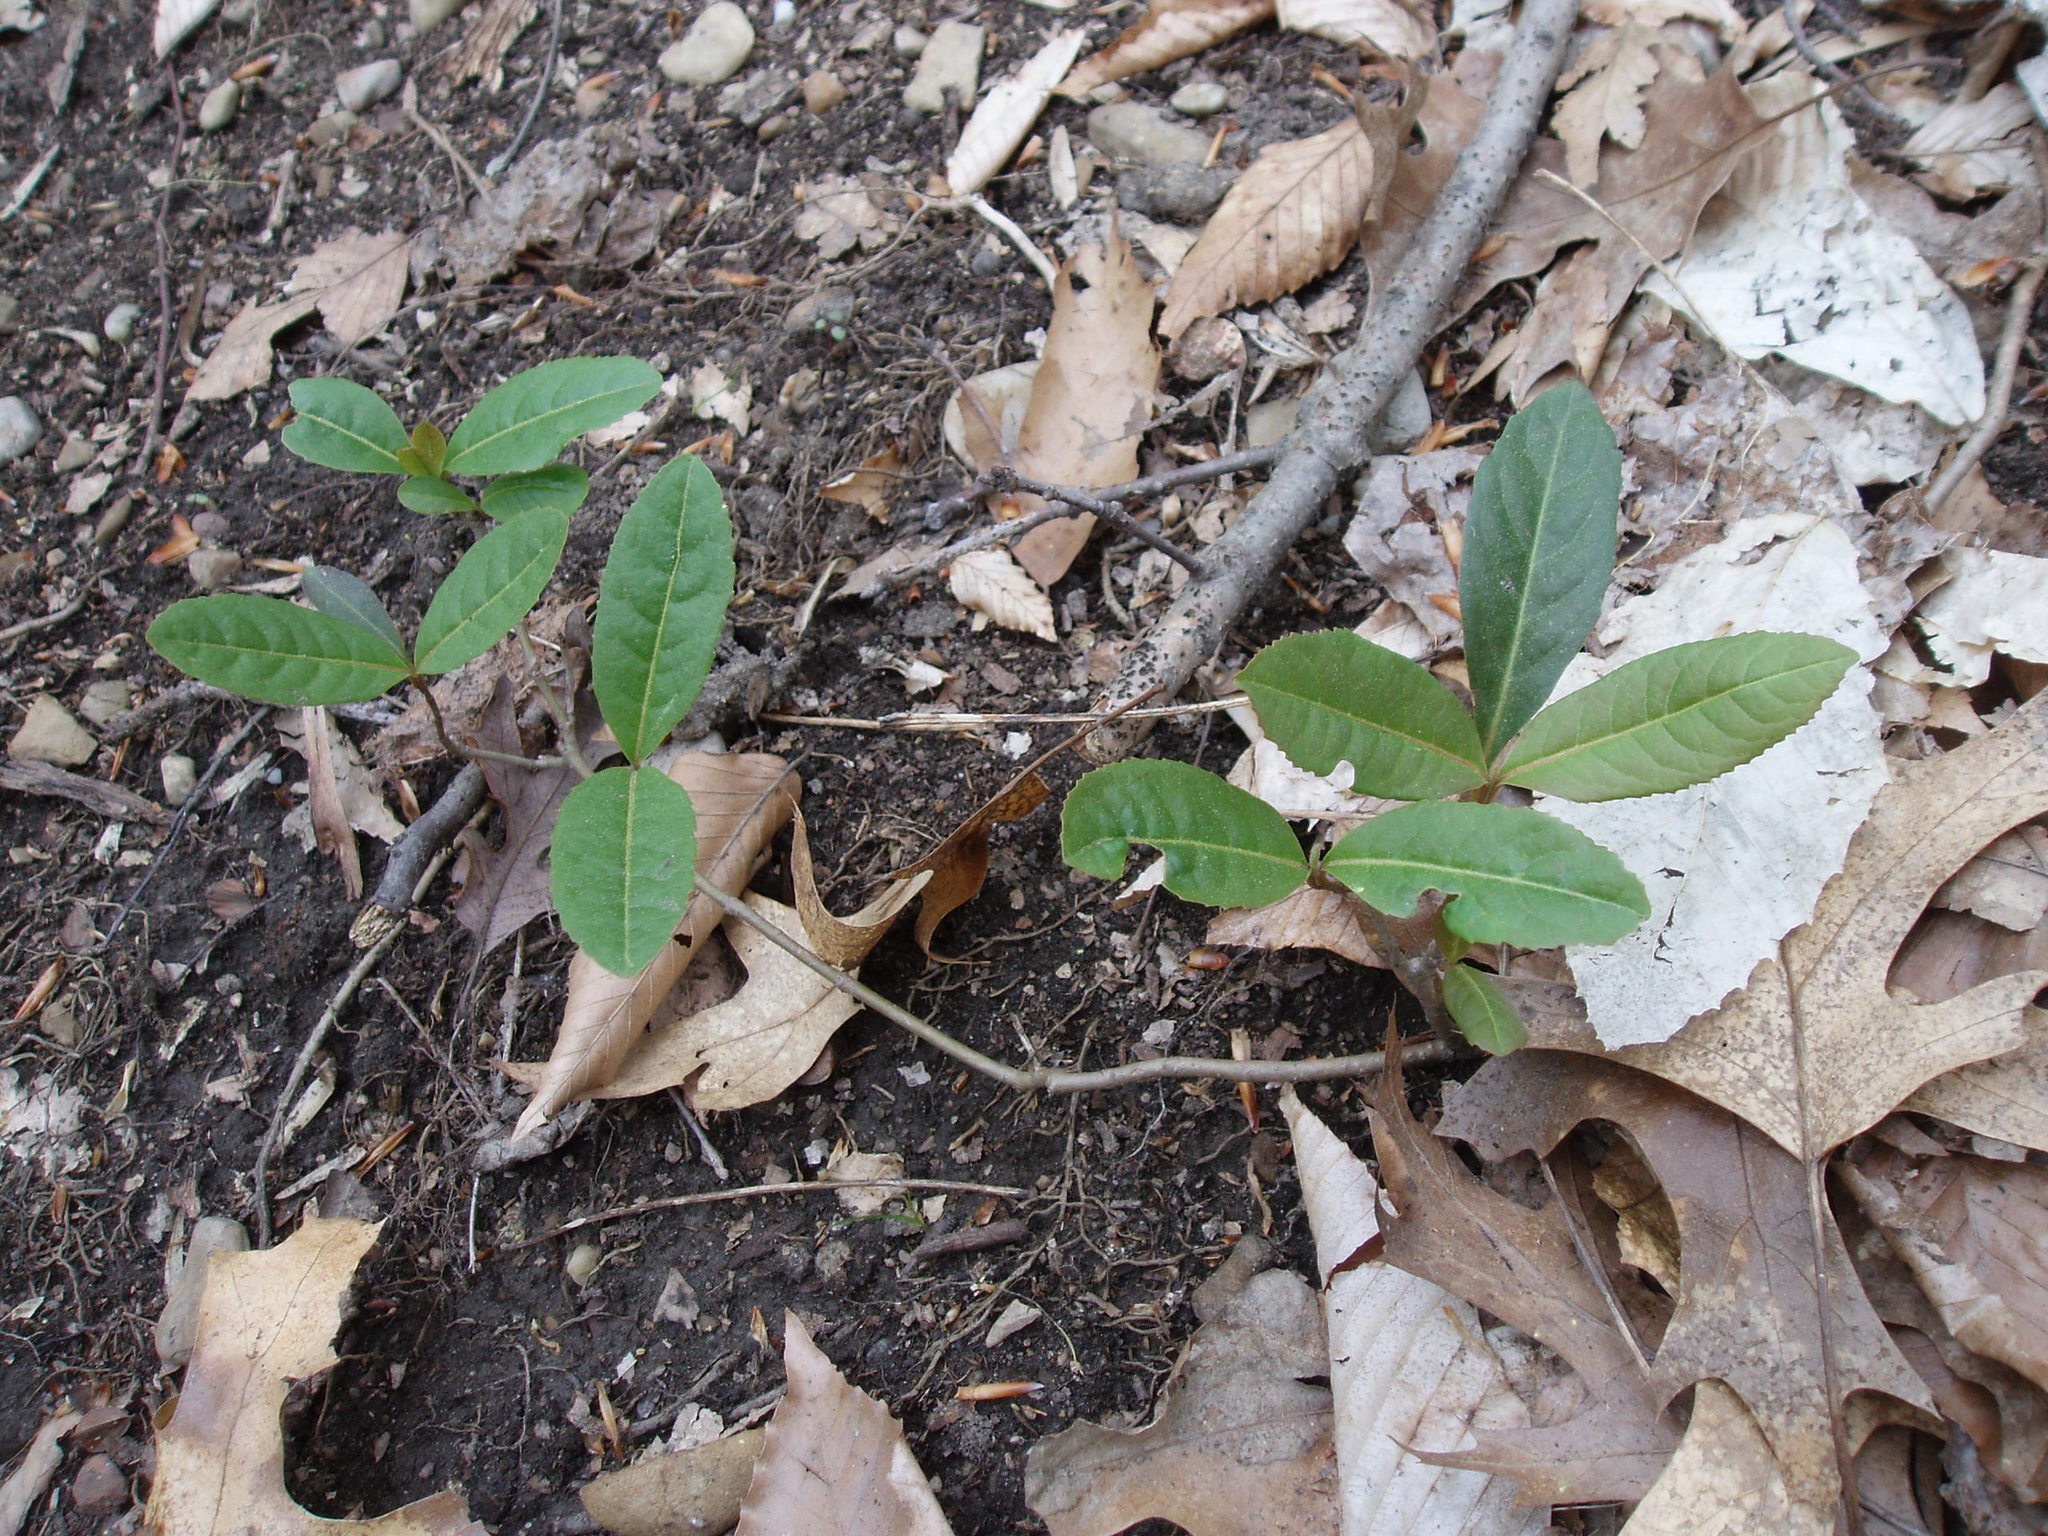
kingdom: Plantae
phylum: Tracheophyta
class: Magnoliopsida
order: Dipsacales
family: Viburnaceae
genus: Viburnum
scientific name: Viburnum cassinoides
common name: Swamp haw
